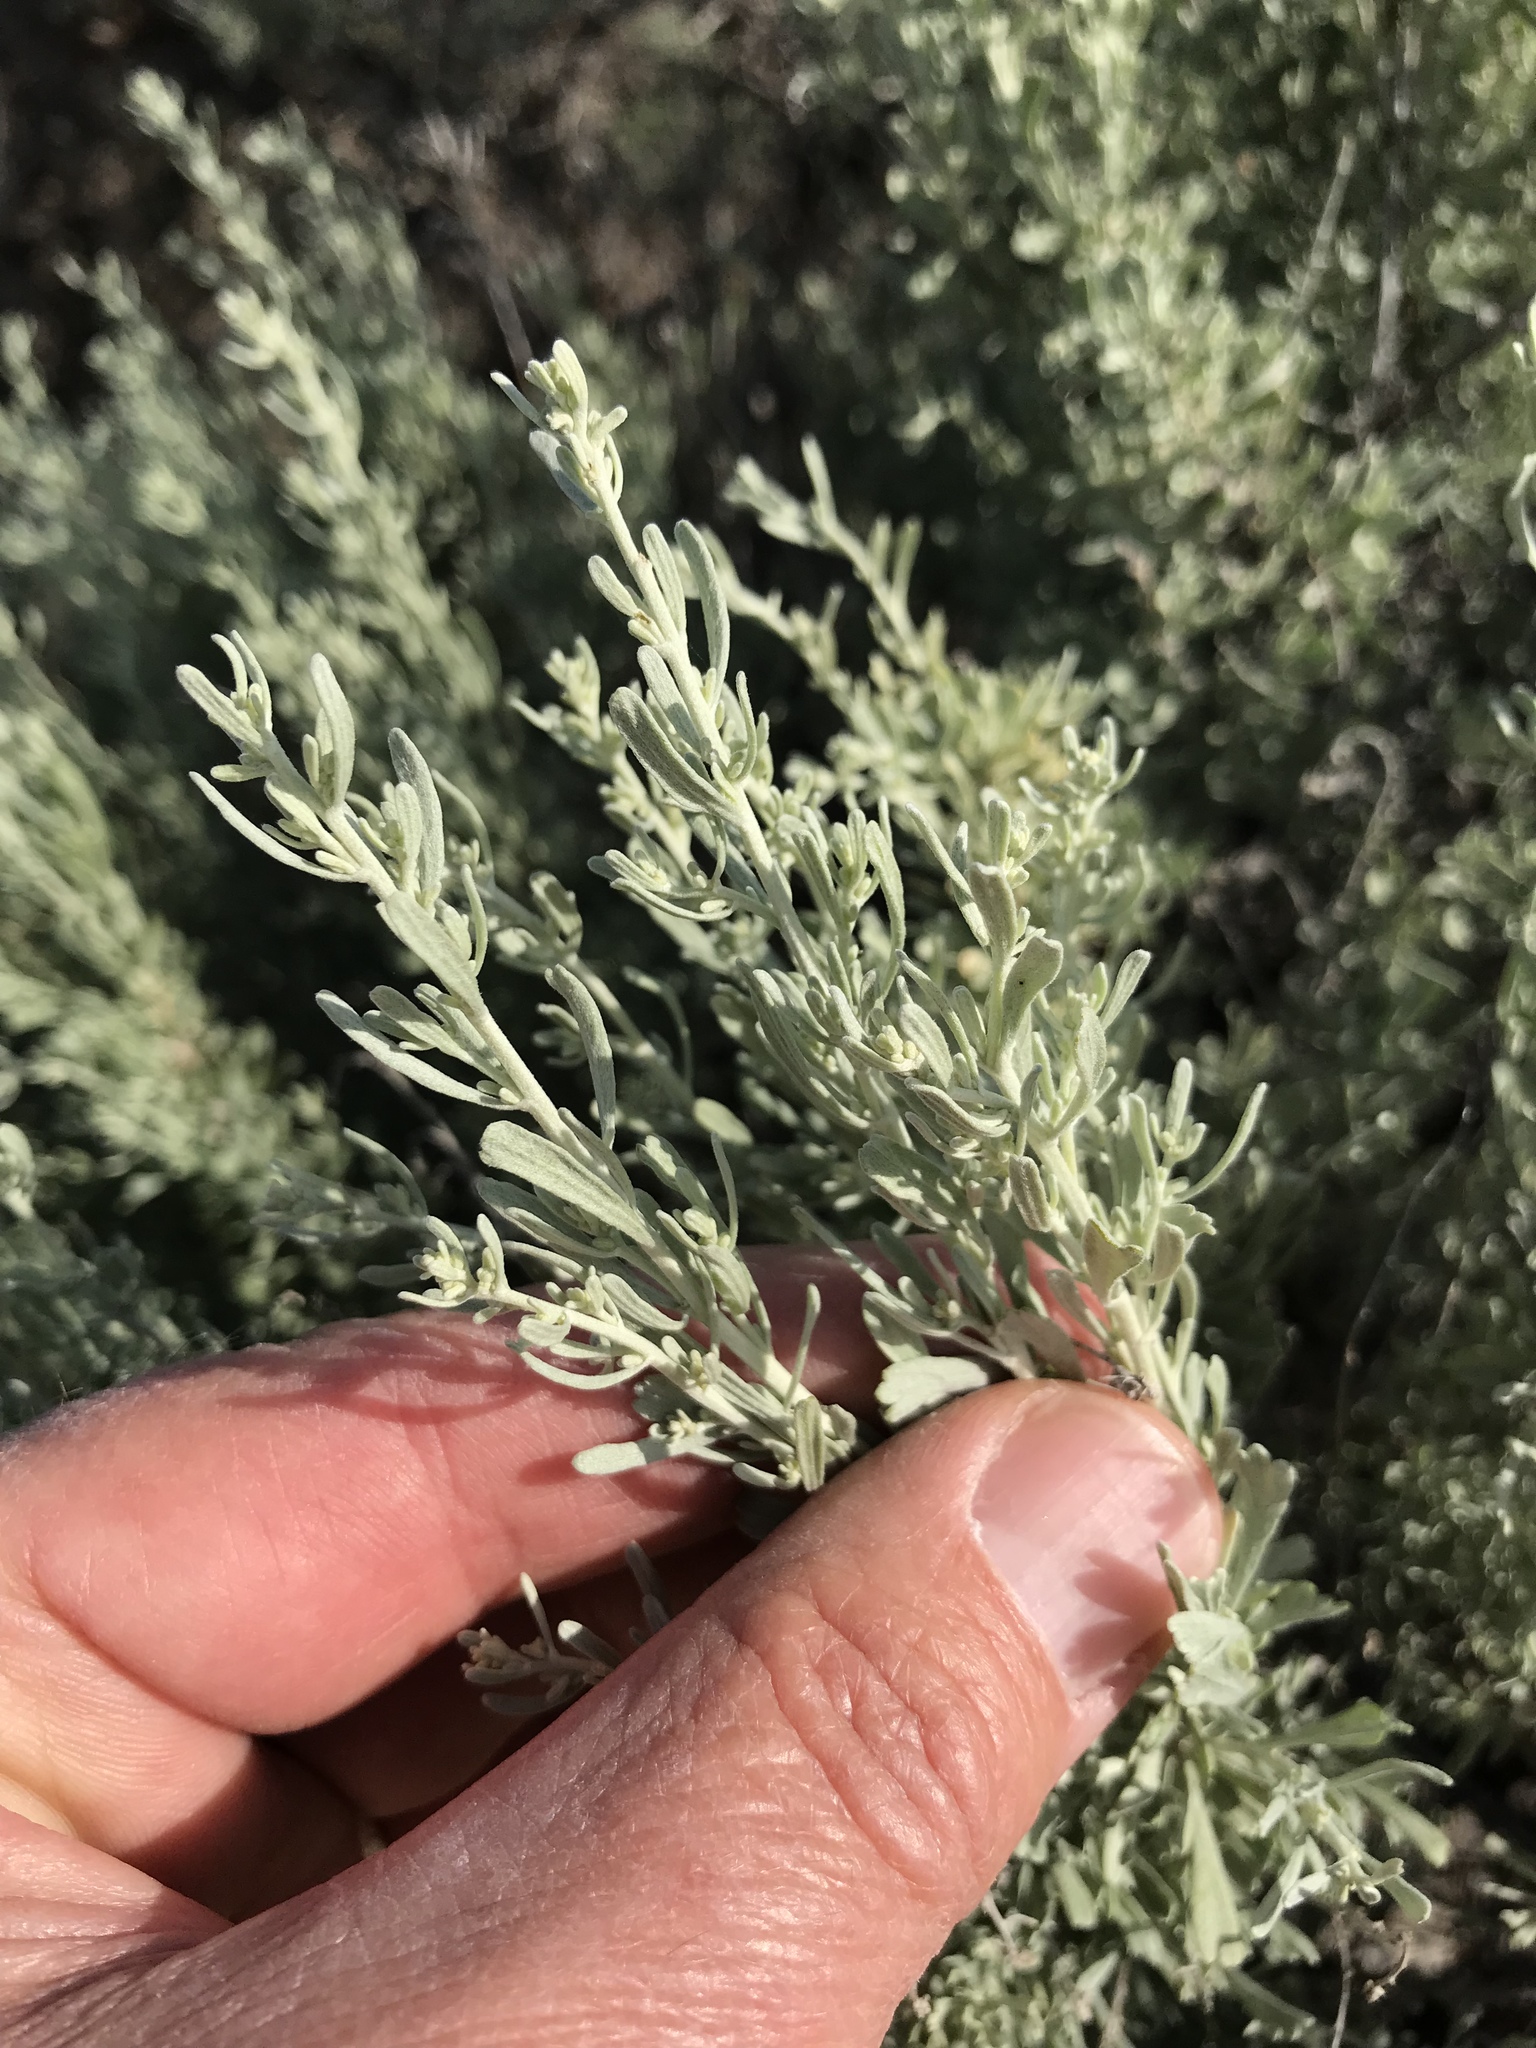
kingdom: Plantae
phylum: Tracheophyta
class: Magnoliopsida
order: Asterales
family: Asteraceae
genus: Artemisia
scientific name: Artemisia tridentata
